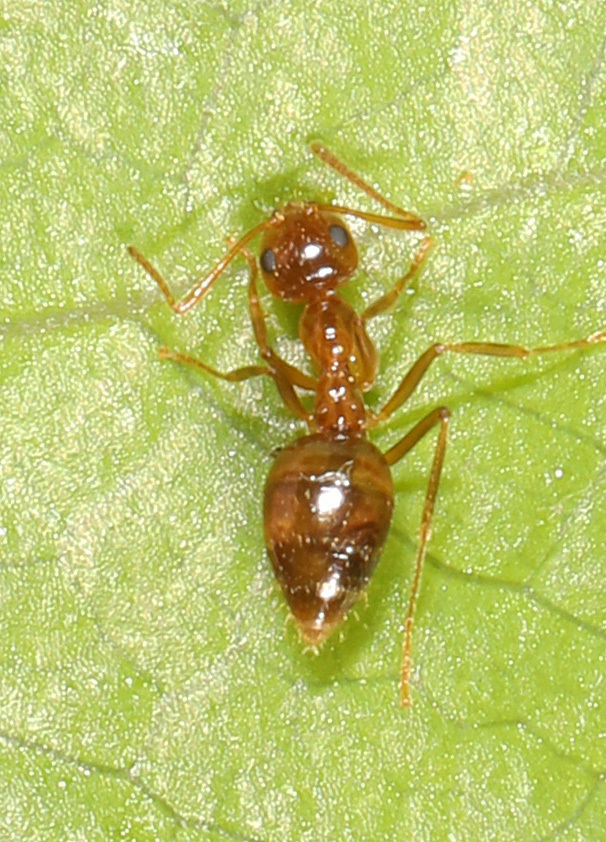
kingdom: Animalia
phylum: Arthropoda
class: Insecta
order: Hymenoptera
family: Formicidae
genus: Prenolepis
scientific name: Prenolepis imparis
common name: Small honey ant
